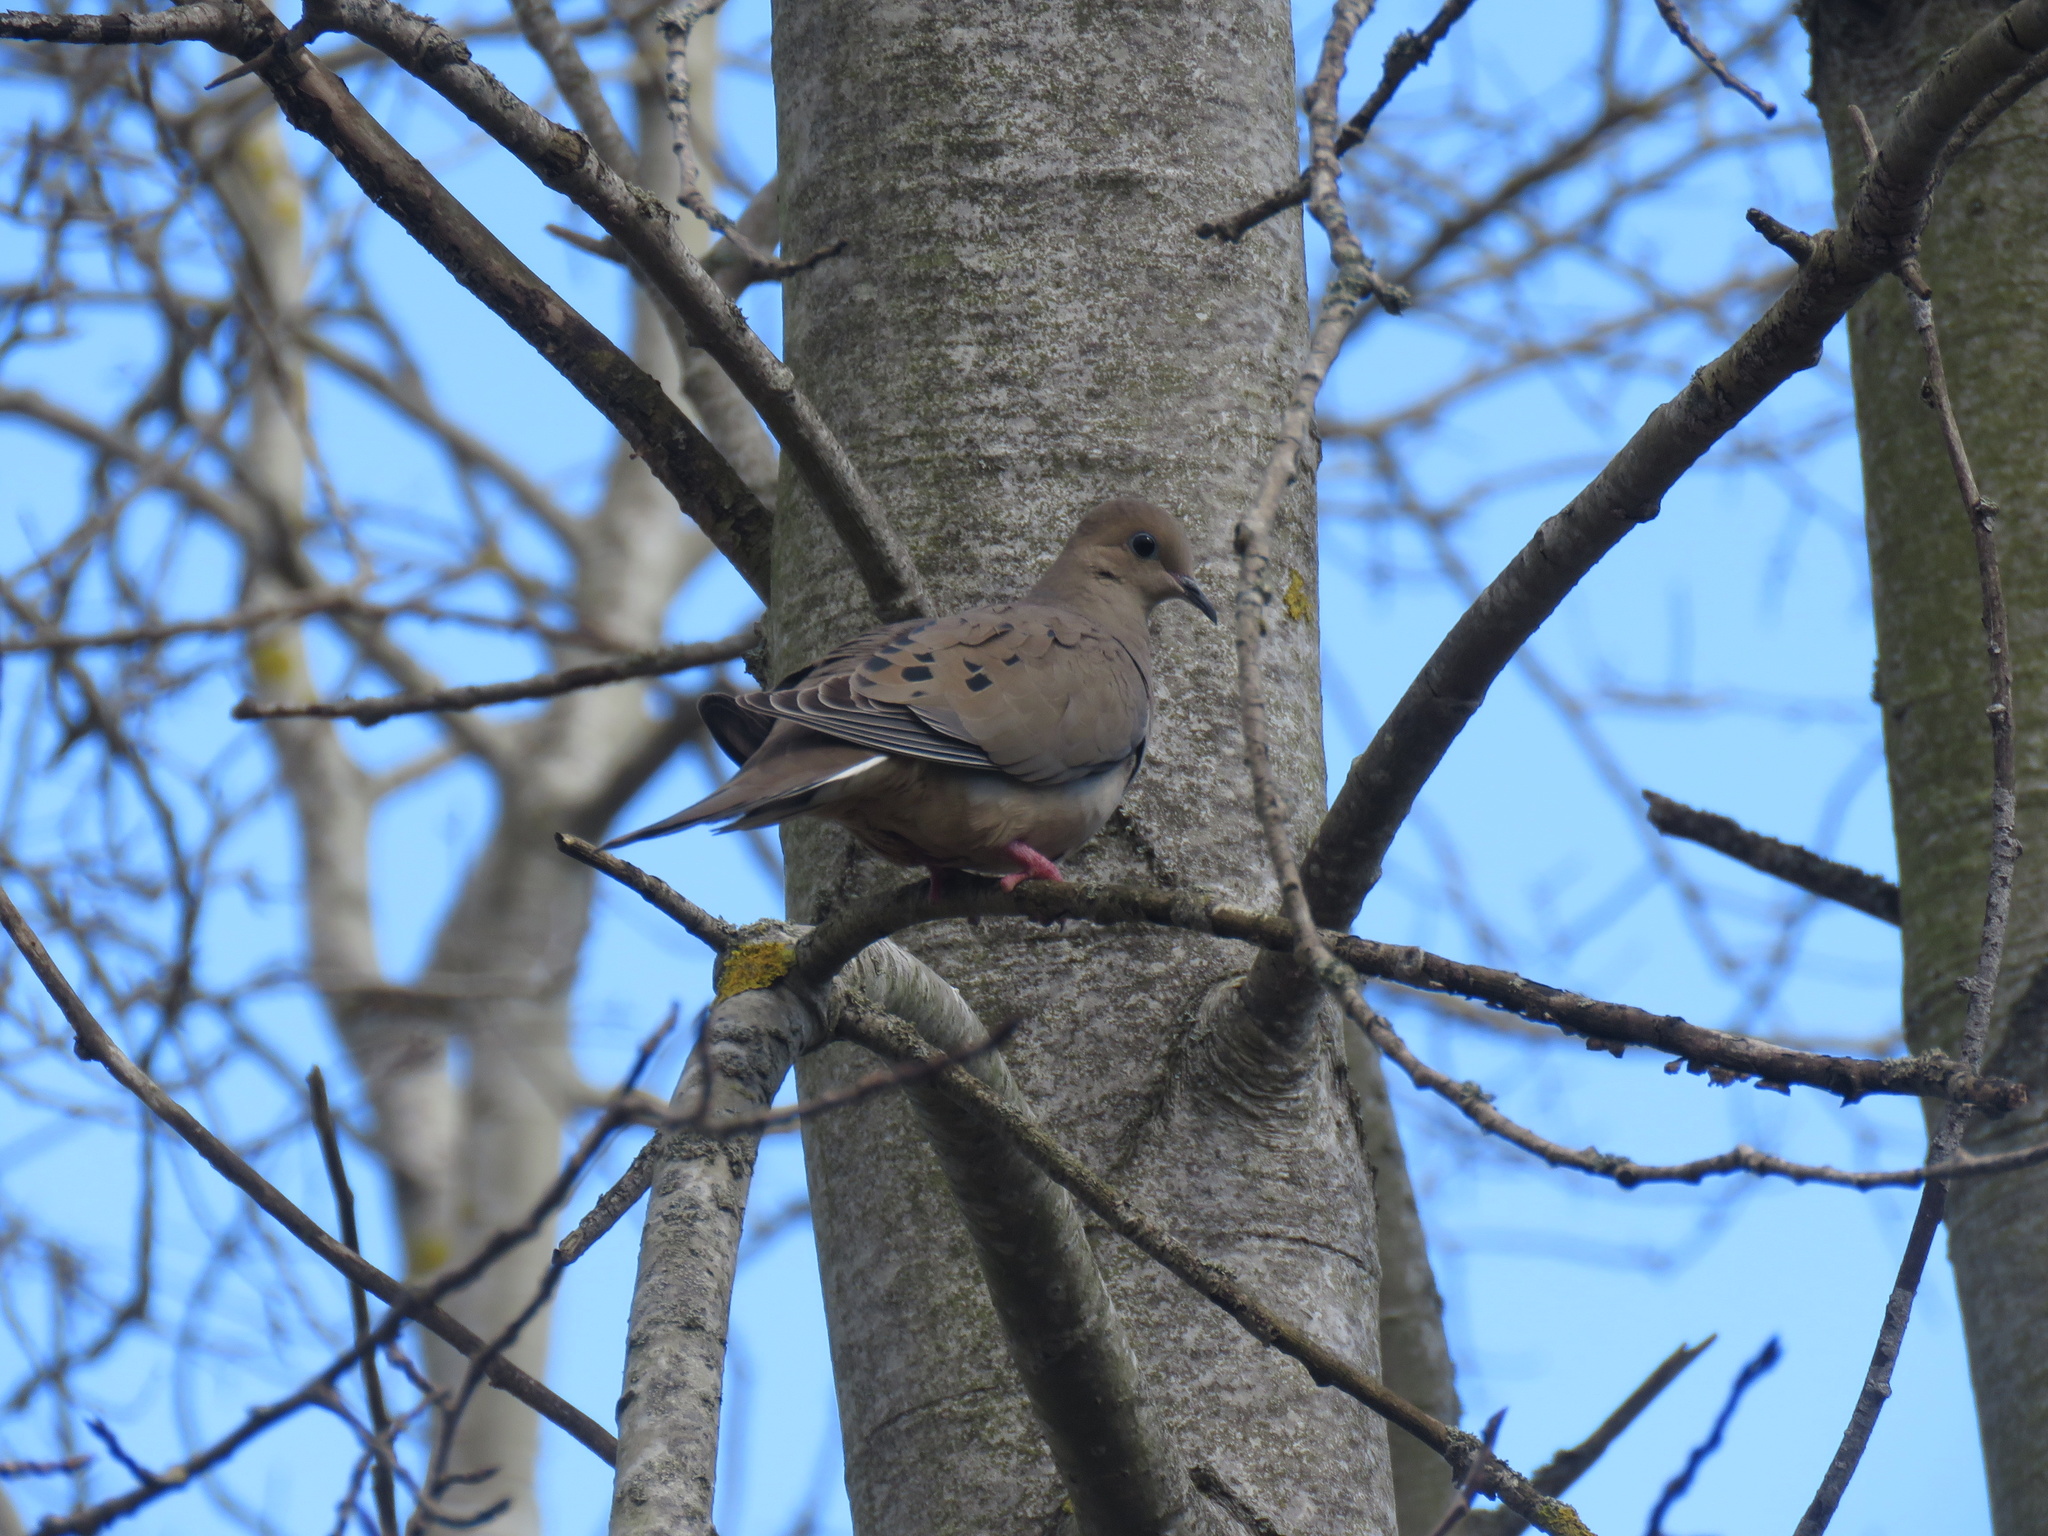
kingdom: Animalia
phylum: Chordata
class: Aves
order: Columbiformes
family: Columbidae
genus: Zenaida
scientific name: Zenaida macroura
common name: Mourning dove
